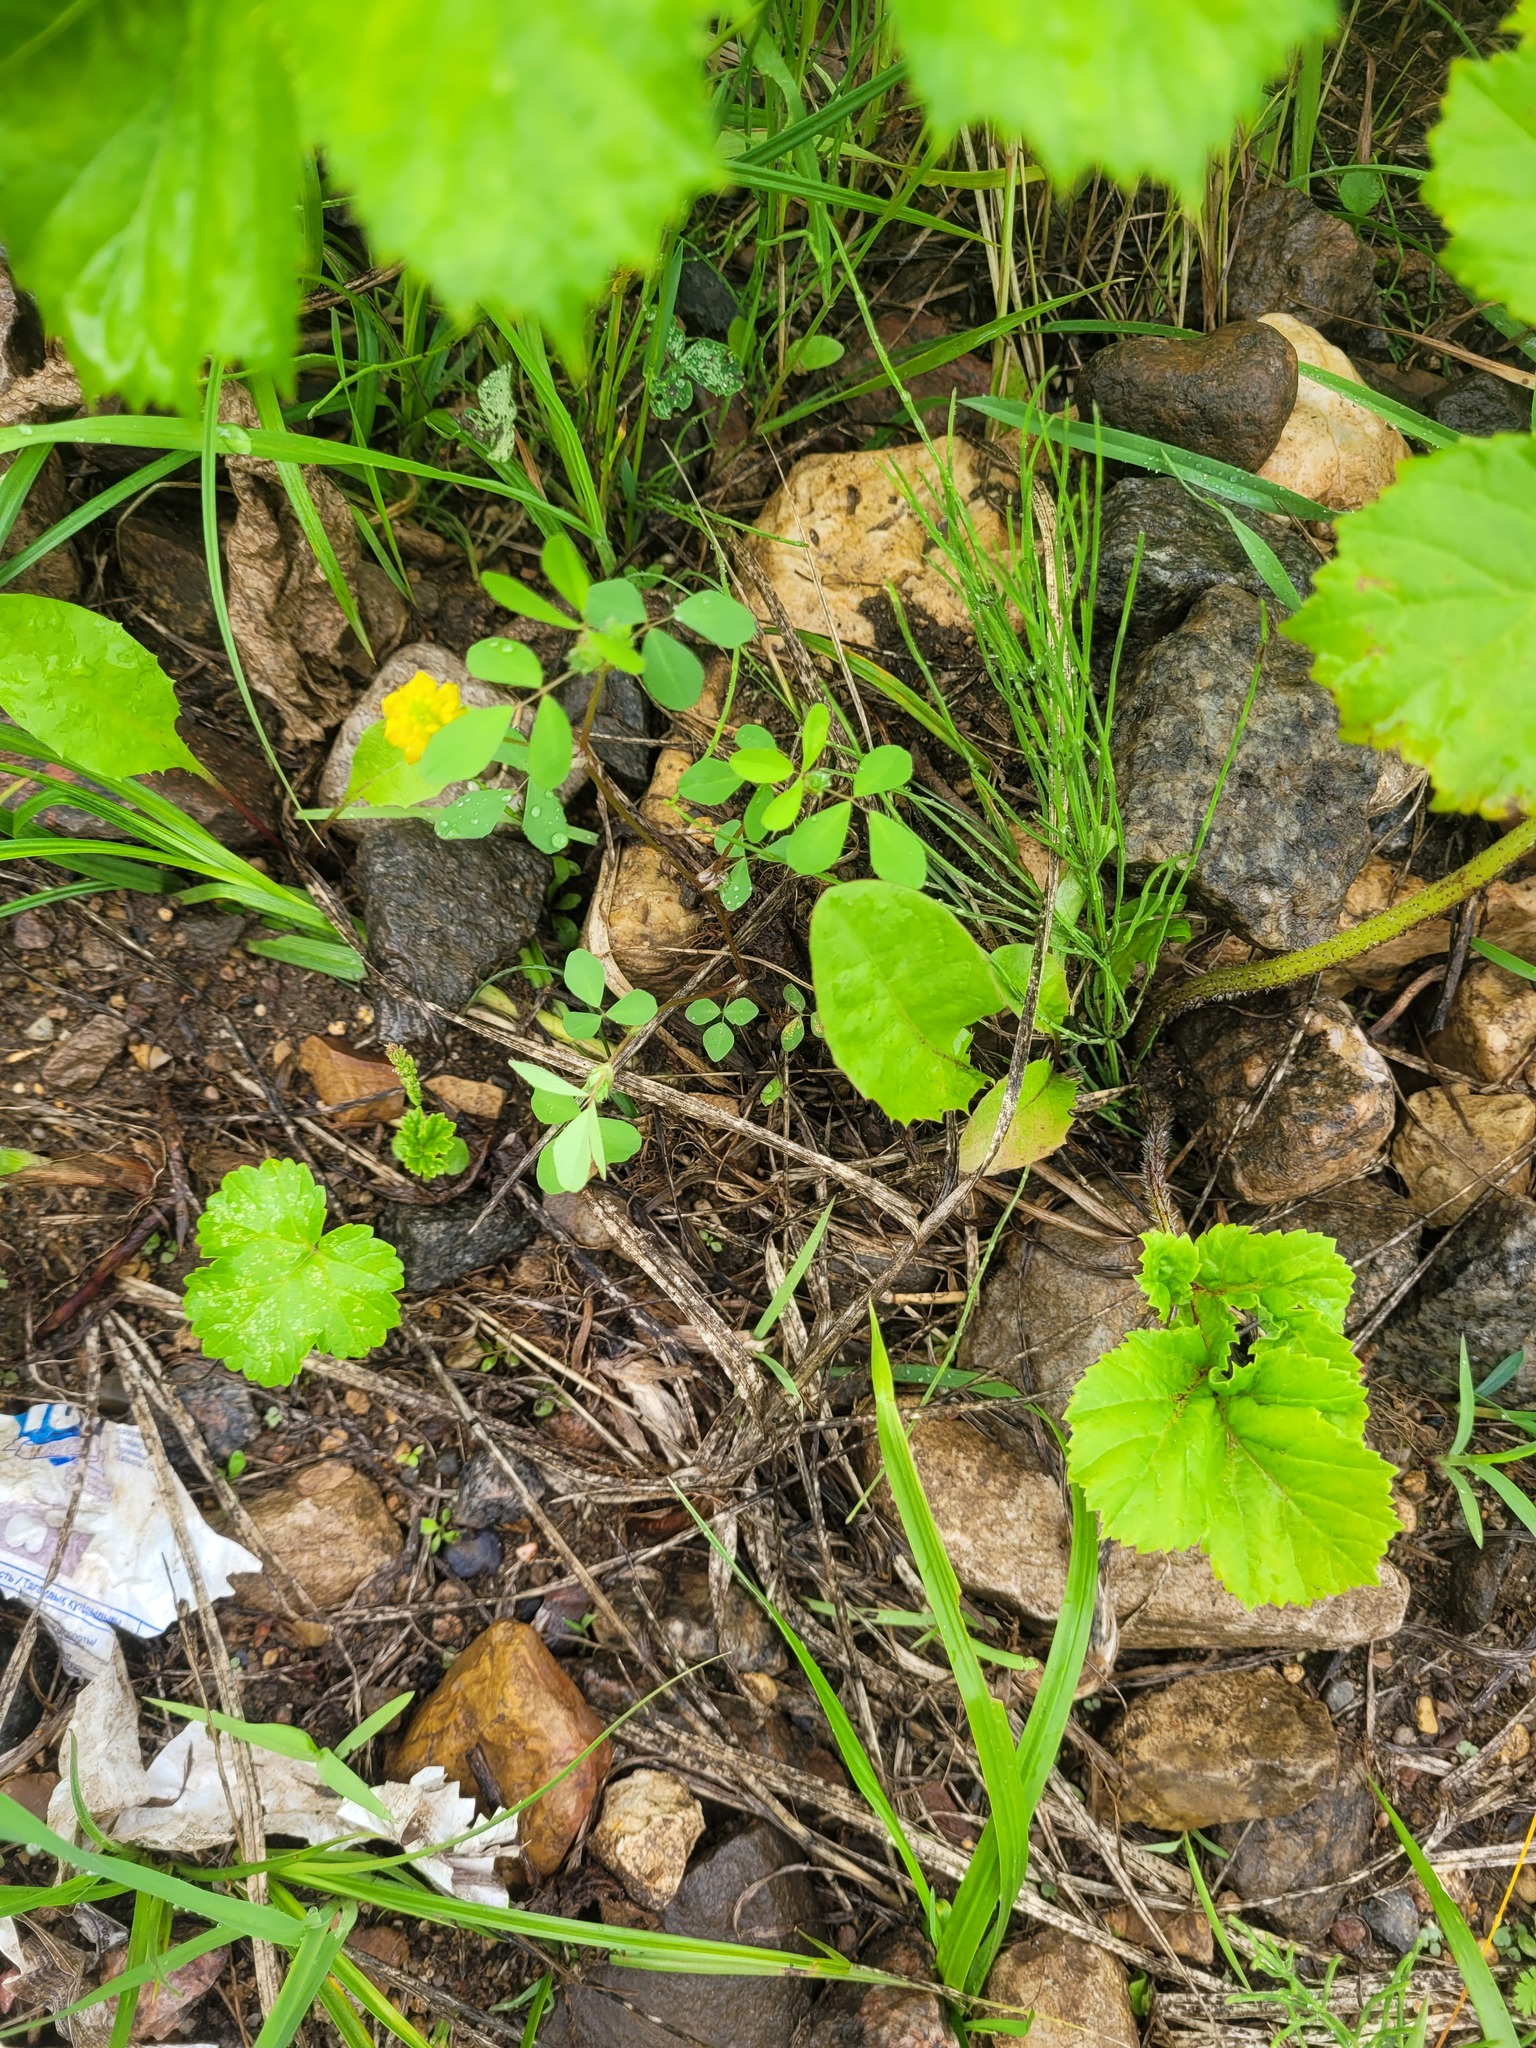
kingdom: Plantae
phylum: Tracheophyta
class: Magnoliopsida
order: Fabales
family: Fabaceae
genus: Trifolium
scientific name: Trifolium campestre
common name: Field clover
